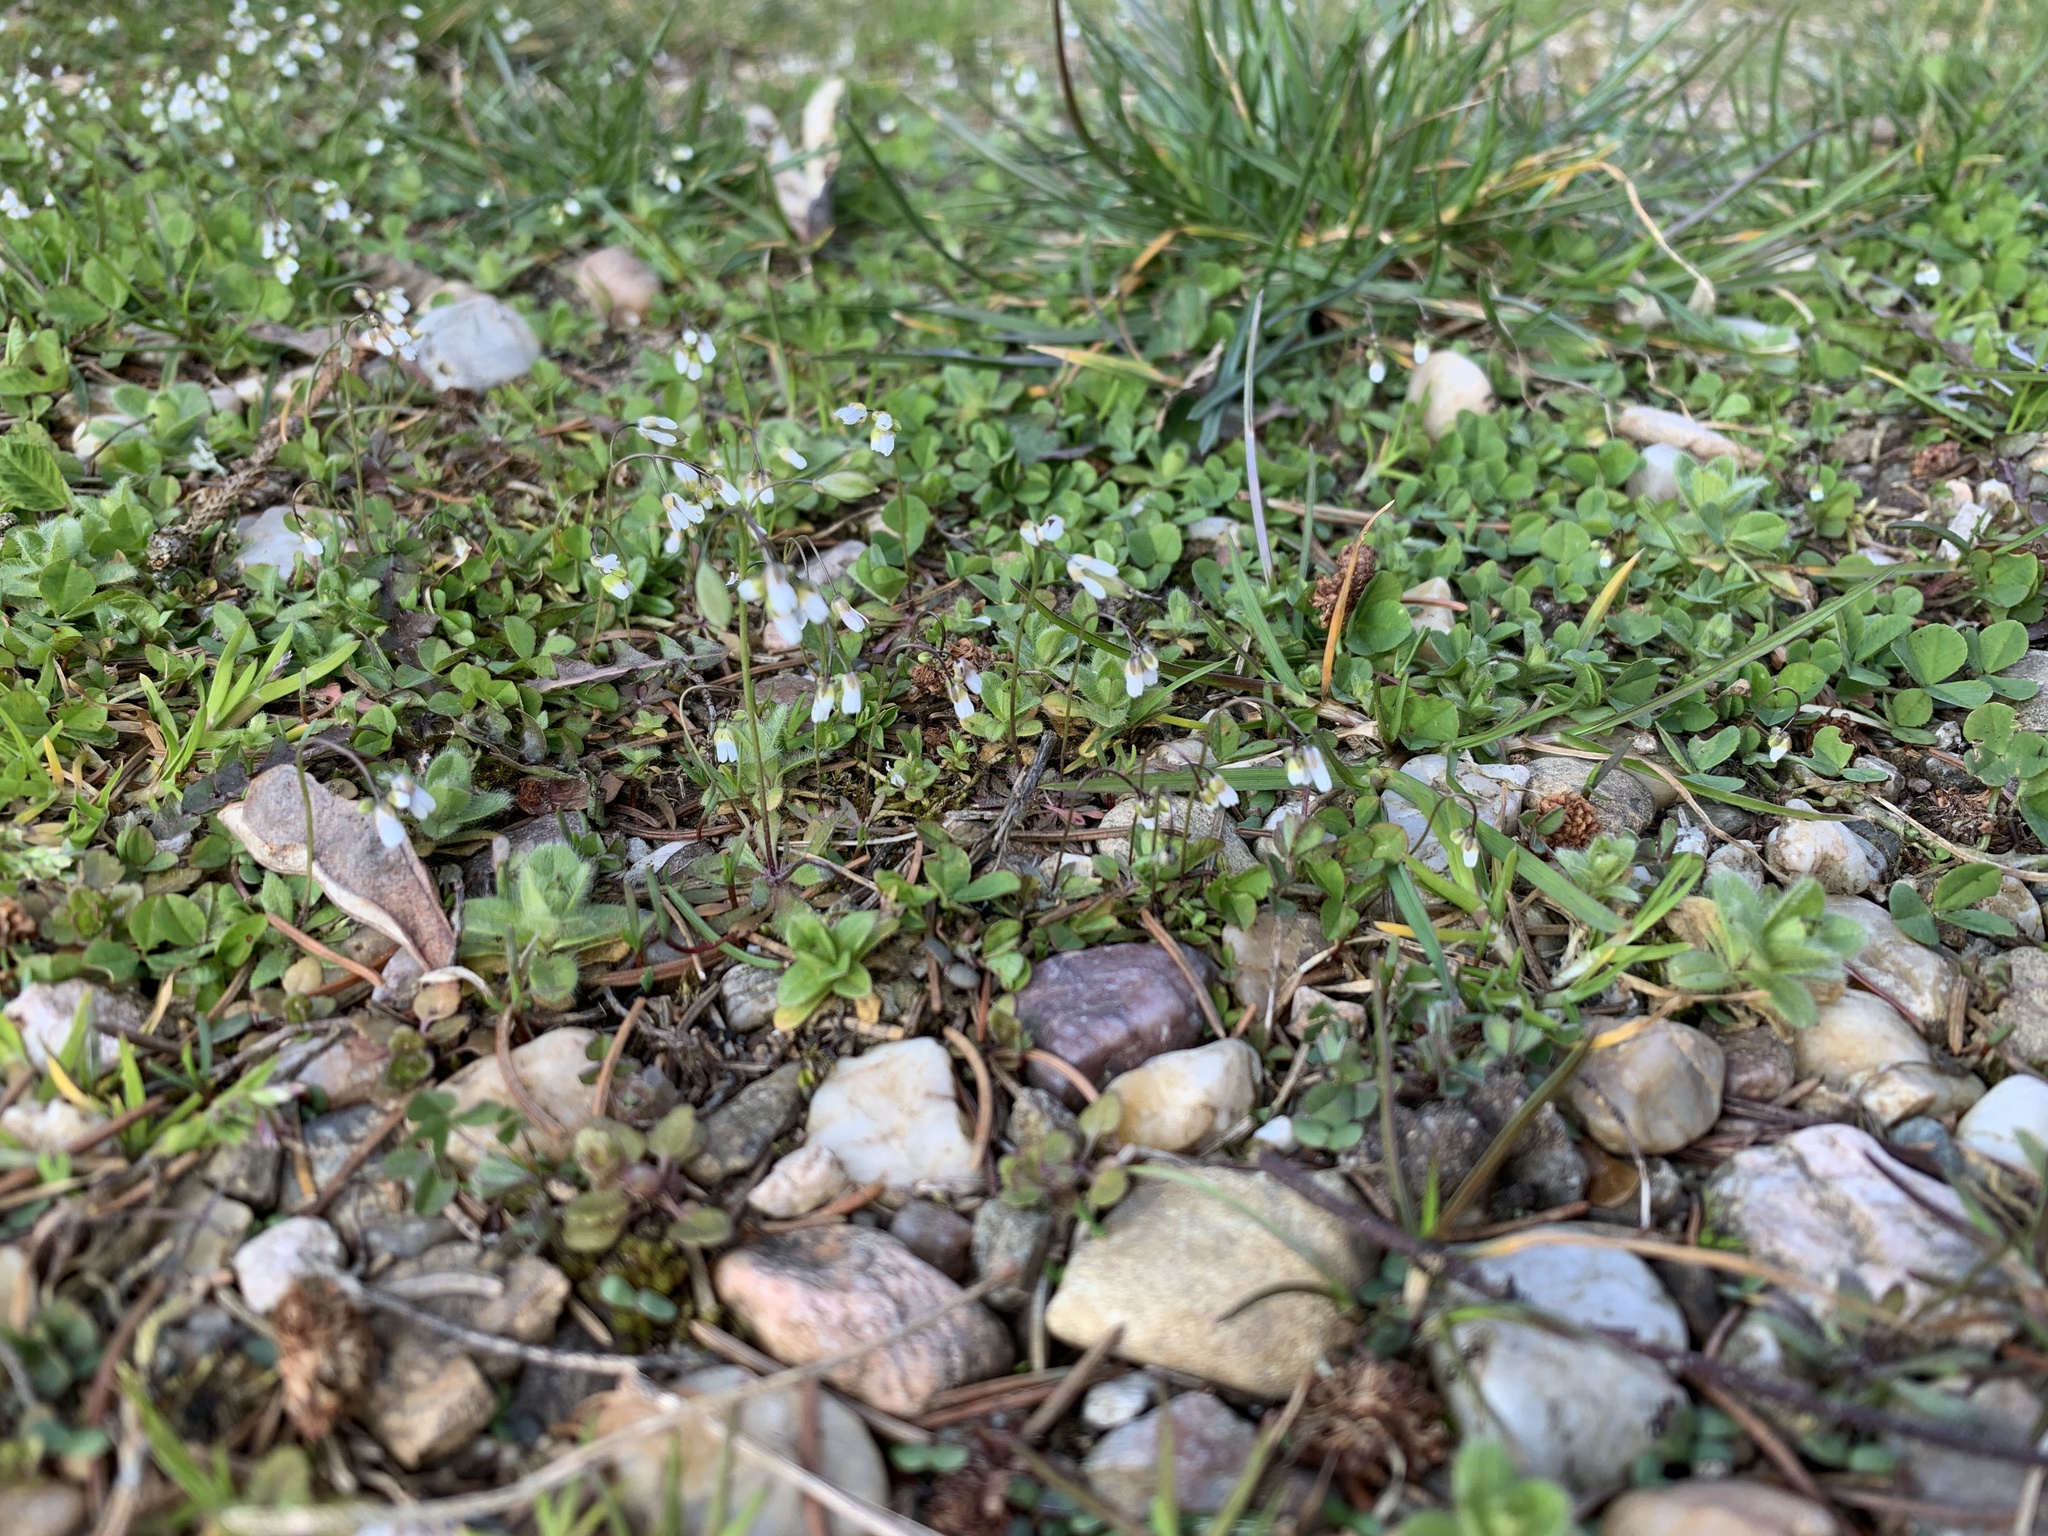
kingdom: Plantae
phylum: Tracheophyta
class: Magnoliopsida
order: Brassicales
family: Brassicaceae
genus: Draba
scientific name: Draba verna
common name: Spring draba
